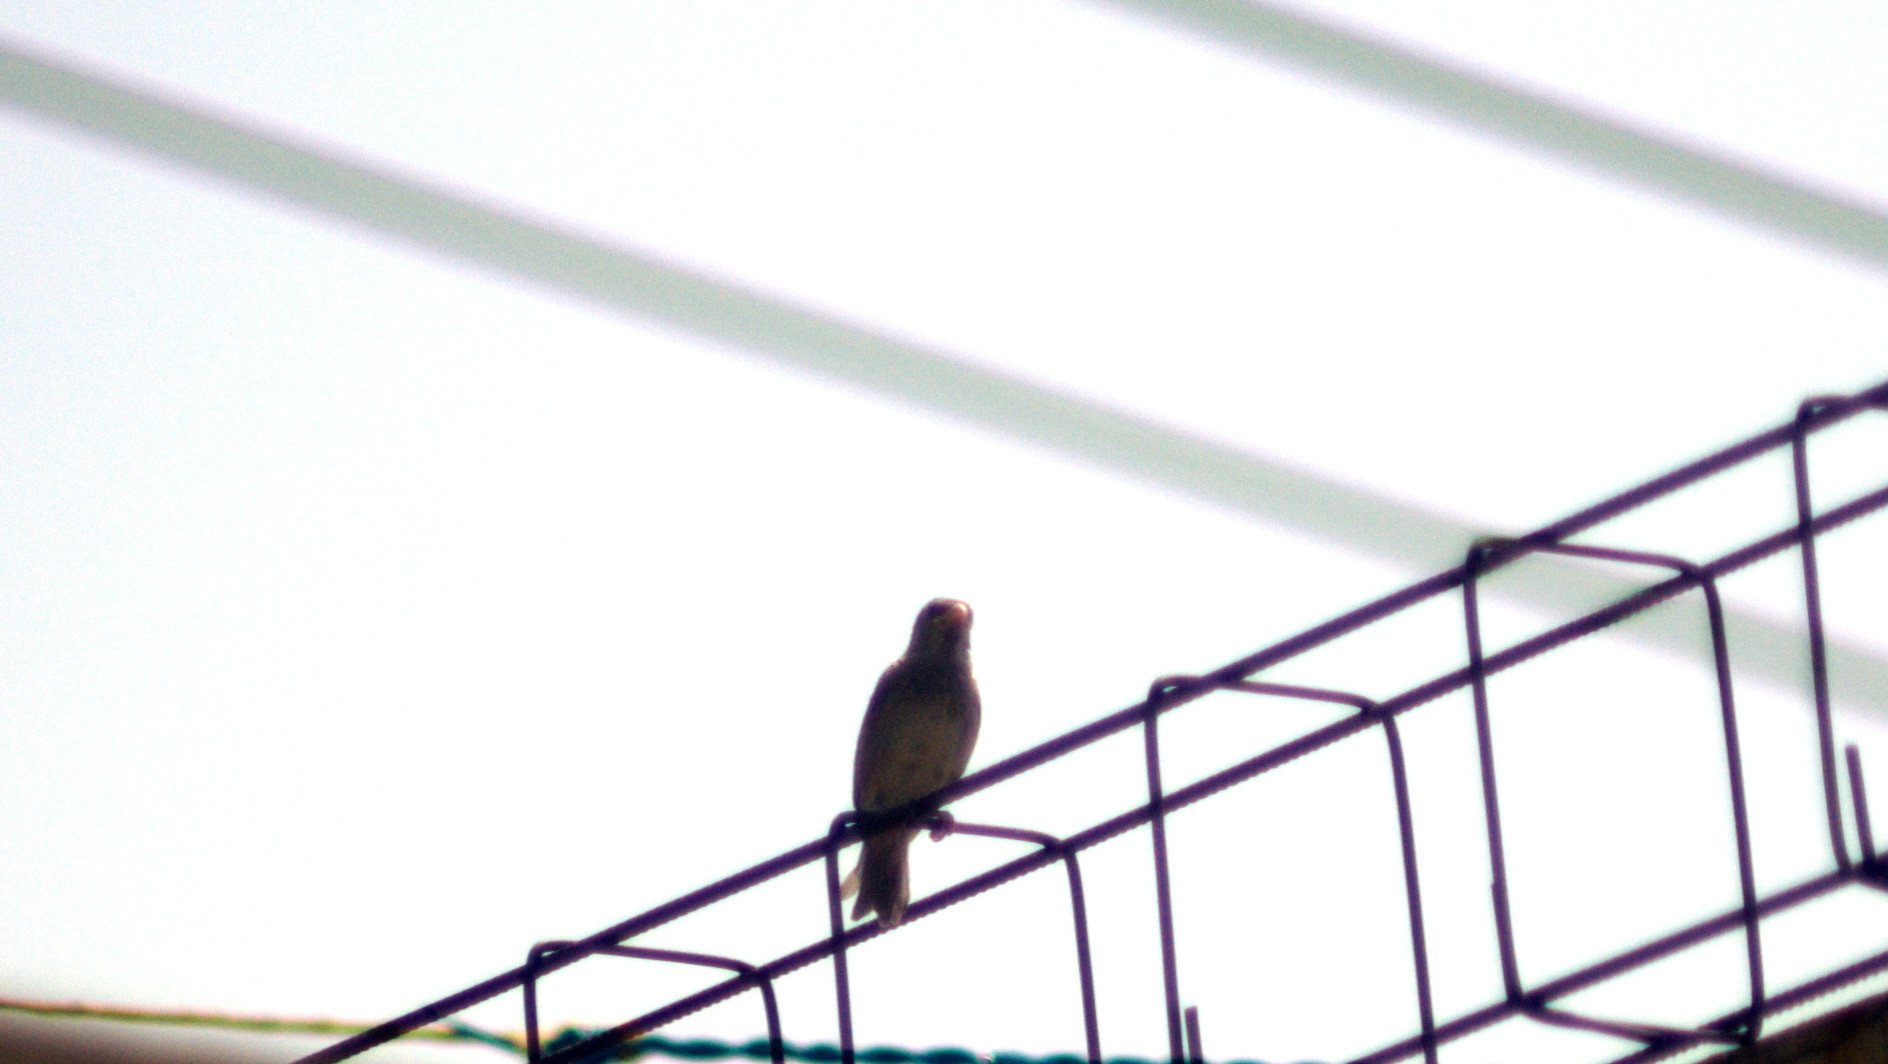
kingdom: Animalia
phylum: Chordata
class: Aves
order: Passeriformes
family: Passeridae
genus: Passer
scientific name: Passer domesticus
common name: House sparrow
